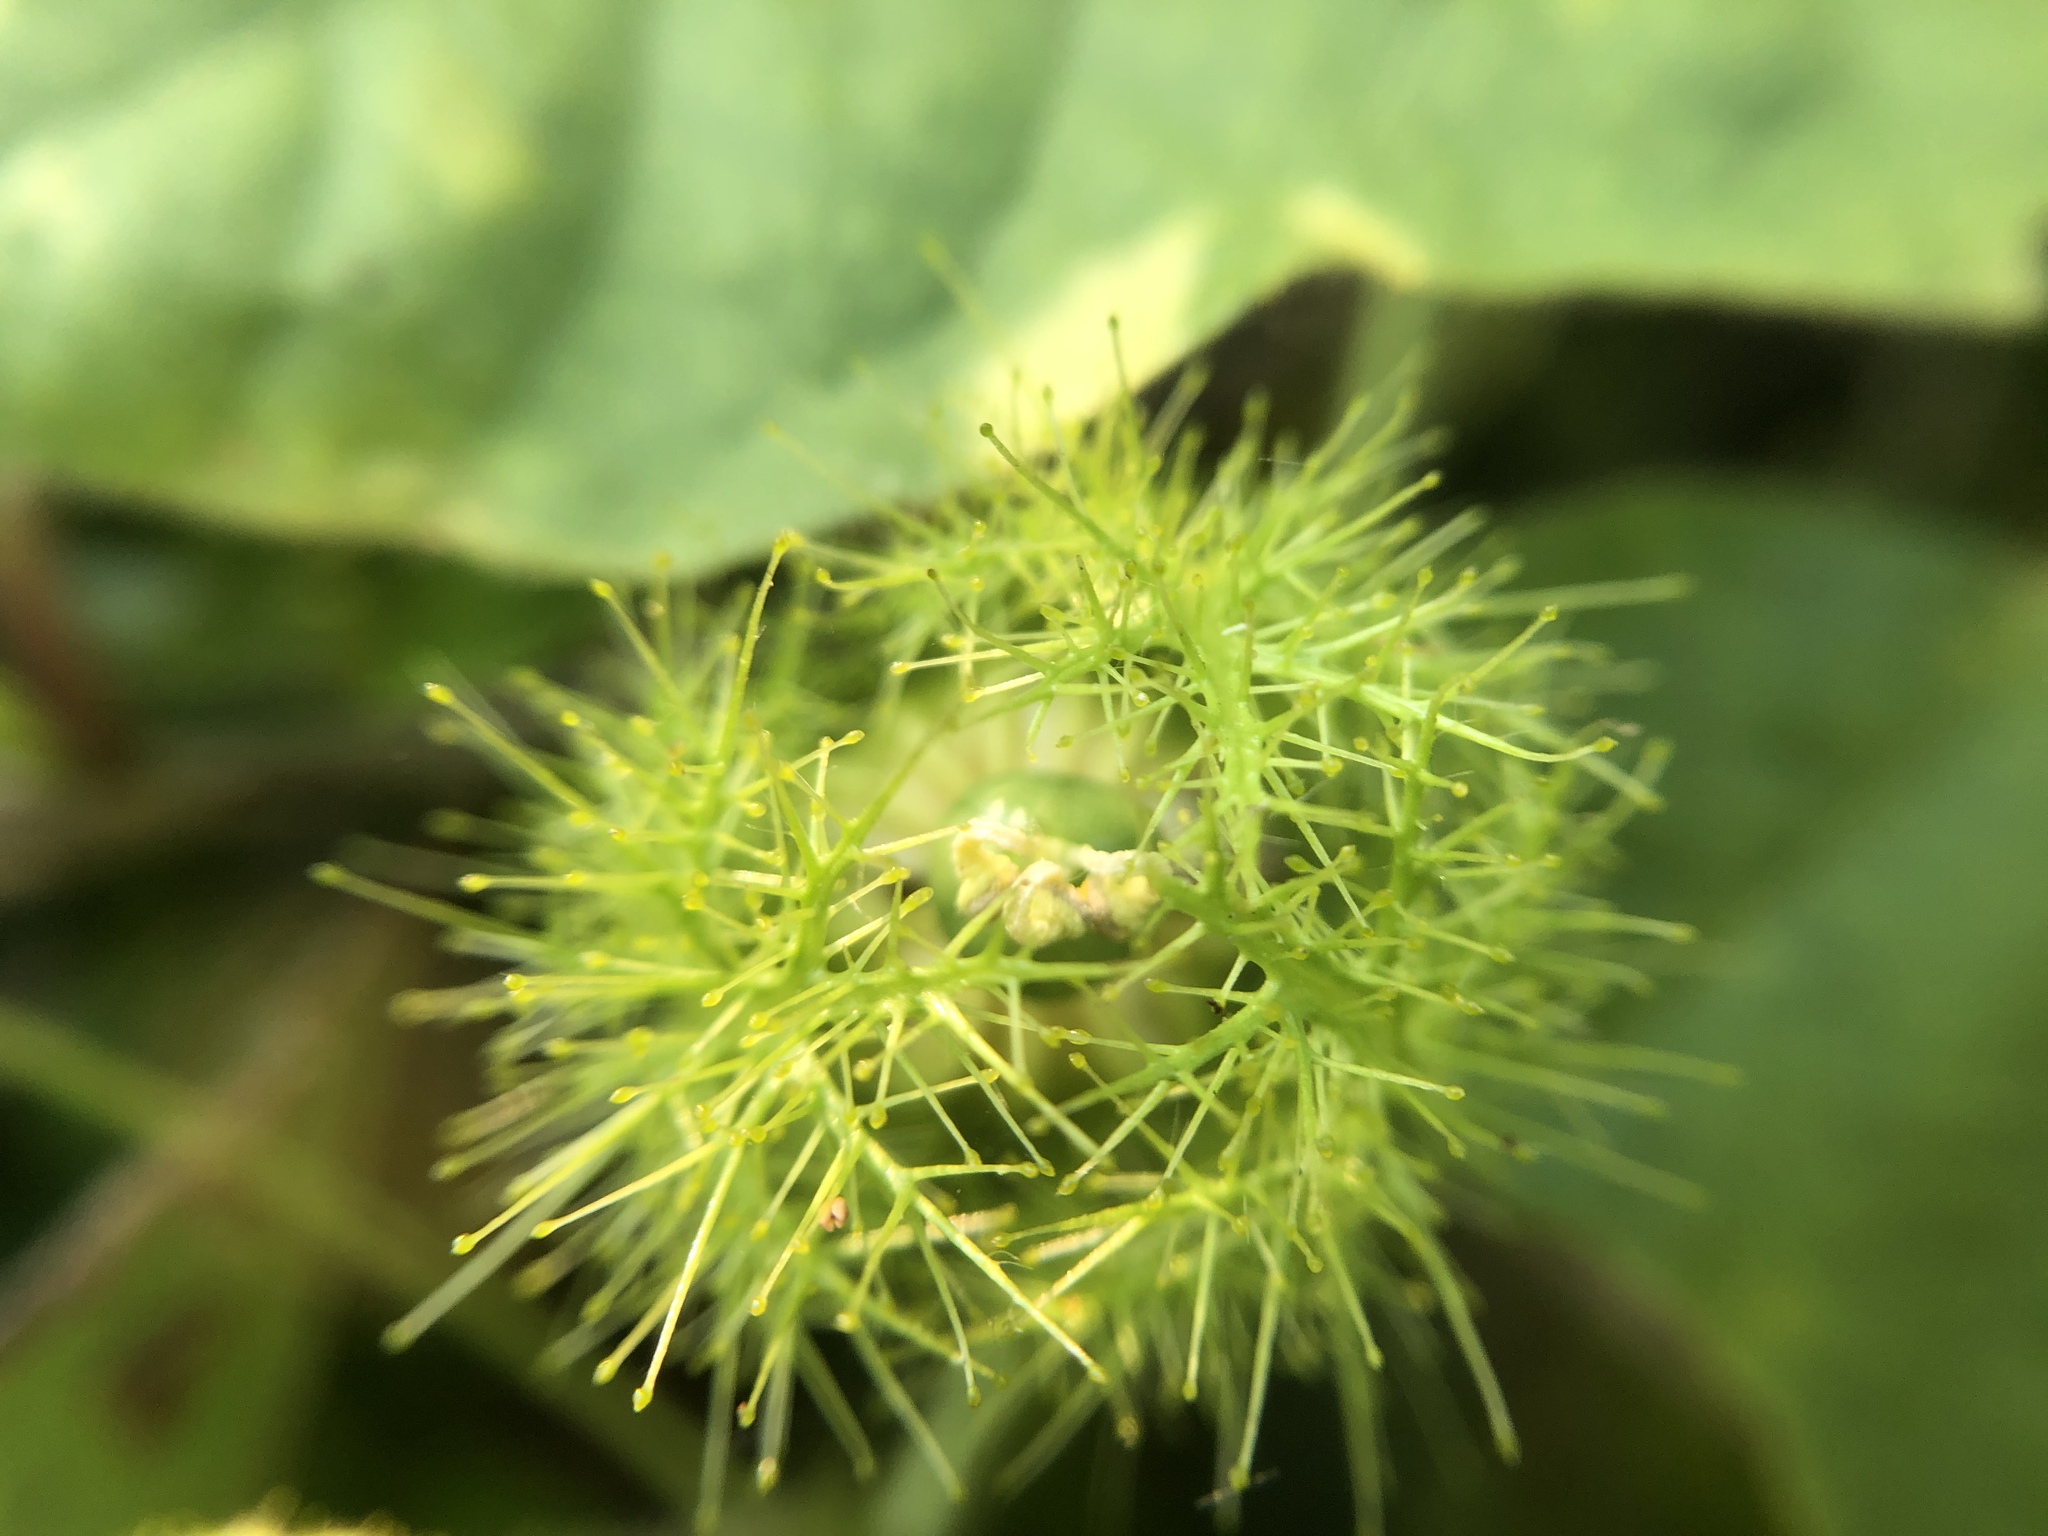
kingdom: Plantae
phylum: Tracheophyta
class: Magnoliopsida
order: Malpighiales
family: Passifloraceae
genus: Passiflora
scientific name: Passiflora vesicaria
